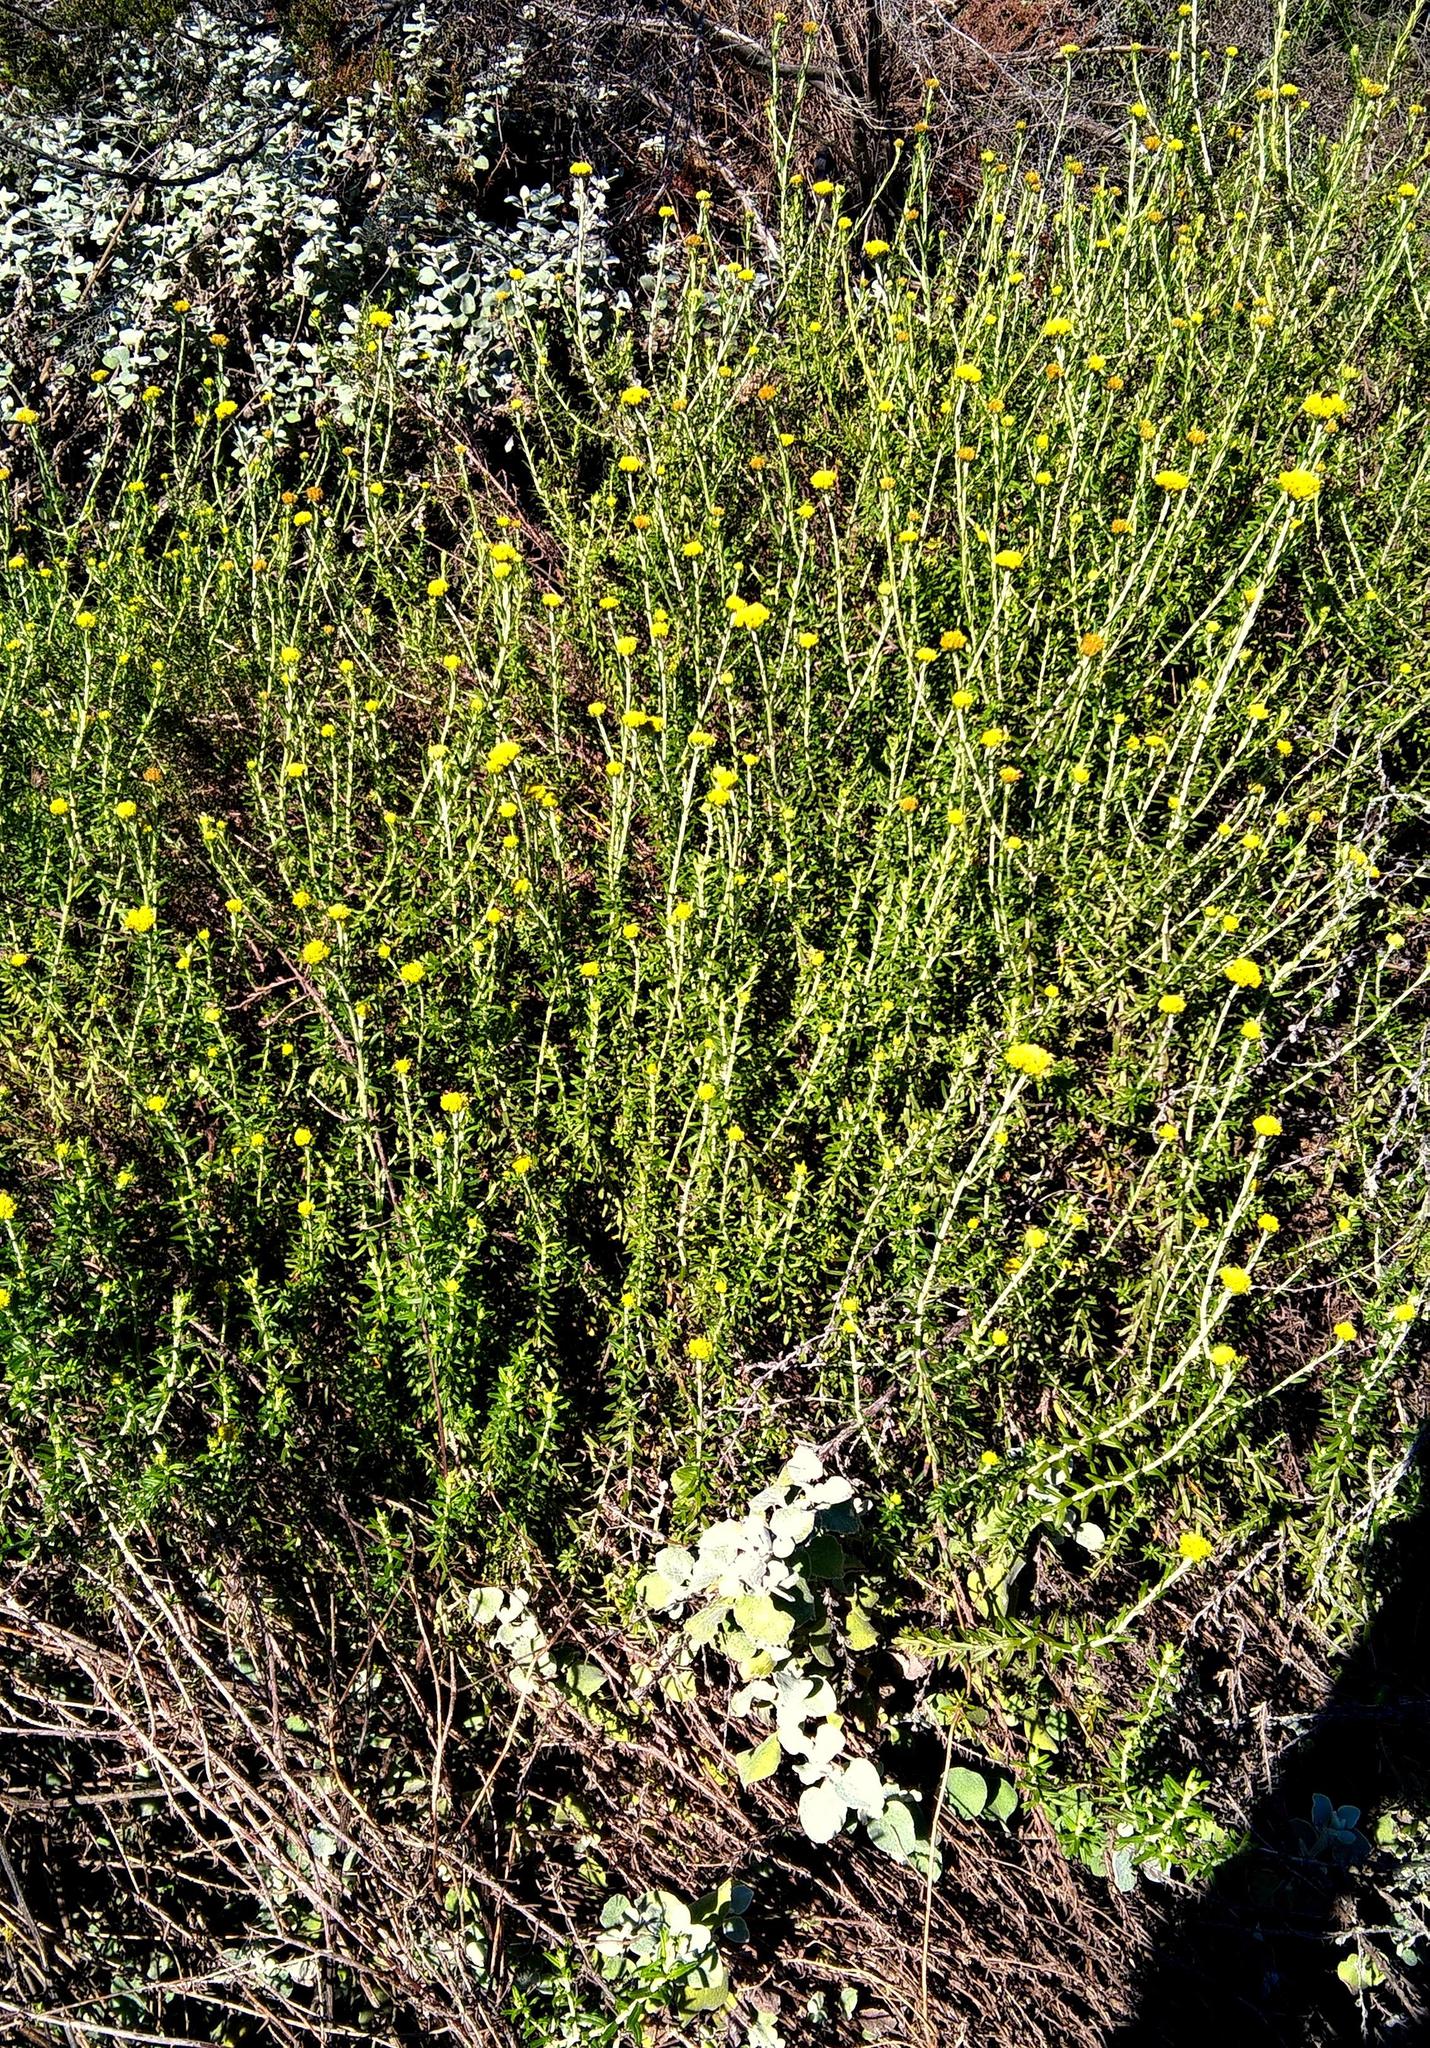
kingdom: Plantae
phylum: Tracheophyta
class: Magnoliopsida
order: Asterales
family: Asteraceae
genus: Helichrysum
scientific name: Helichrysum cymosum
